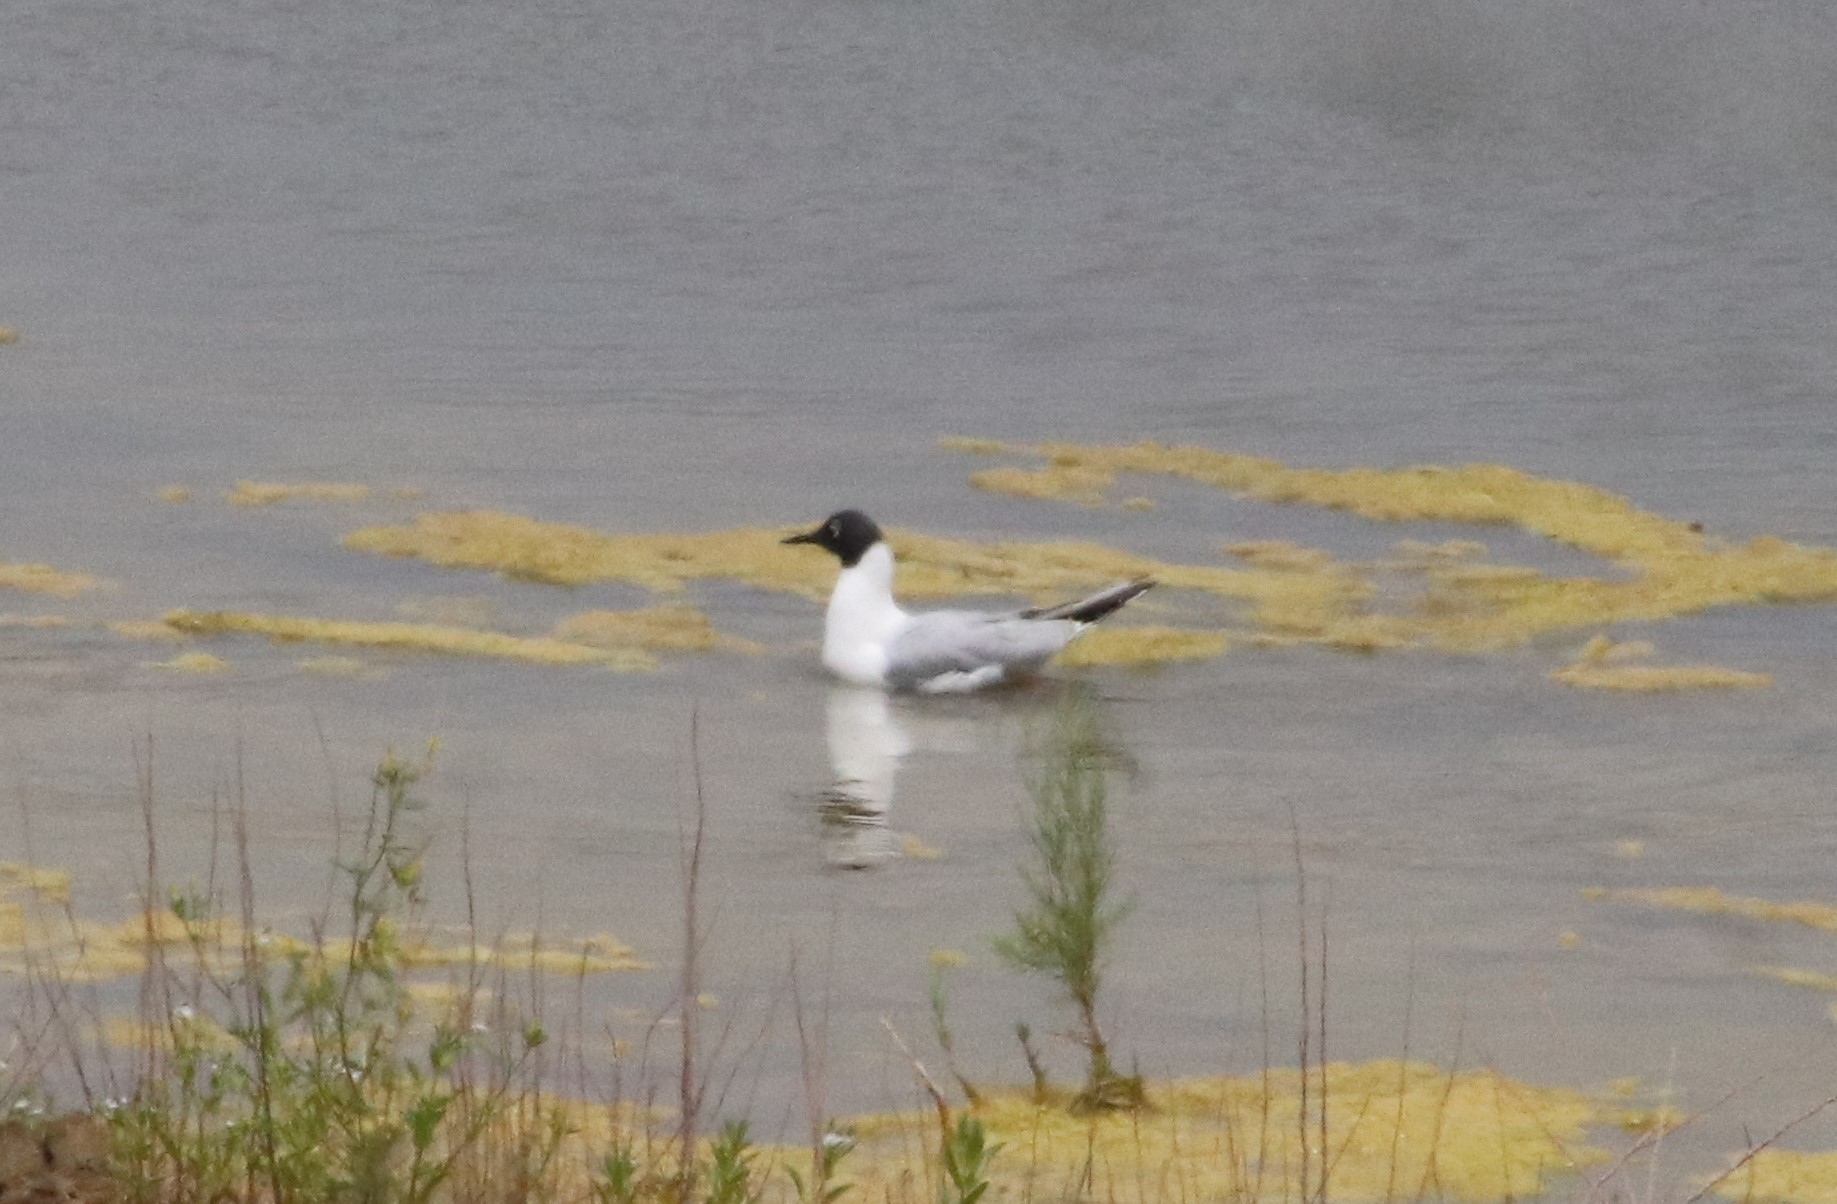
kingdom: Animalia
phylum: Chordata
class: Aves
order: Charadriiformes
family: Laridae
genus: Chroicocephalus
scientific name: Chroicocephalus philadelphia
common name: Bonaparte's gull
